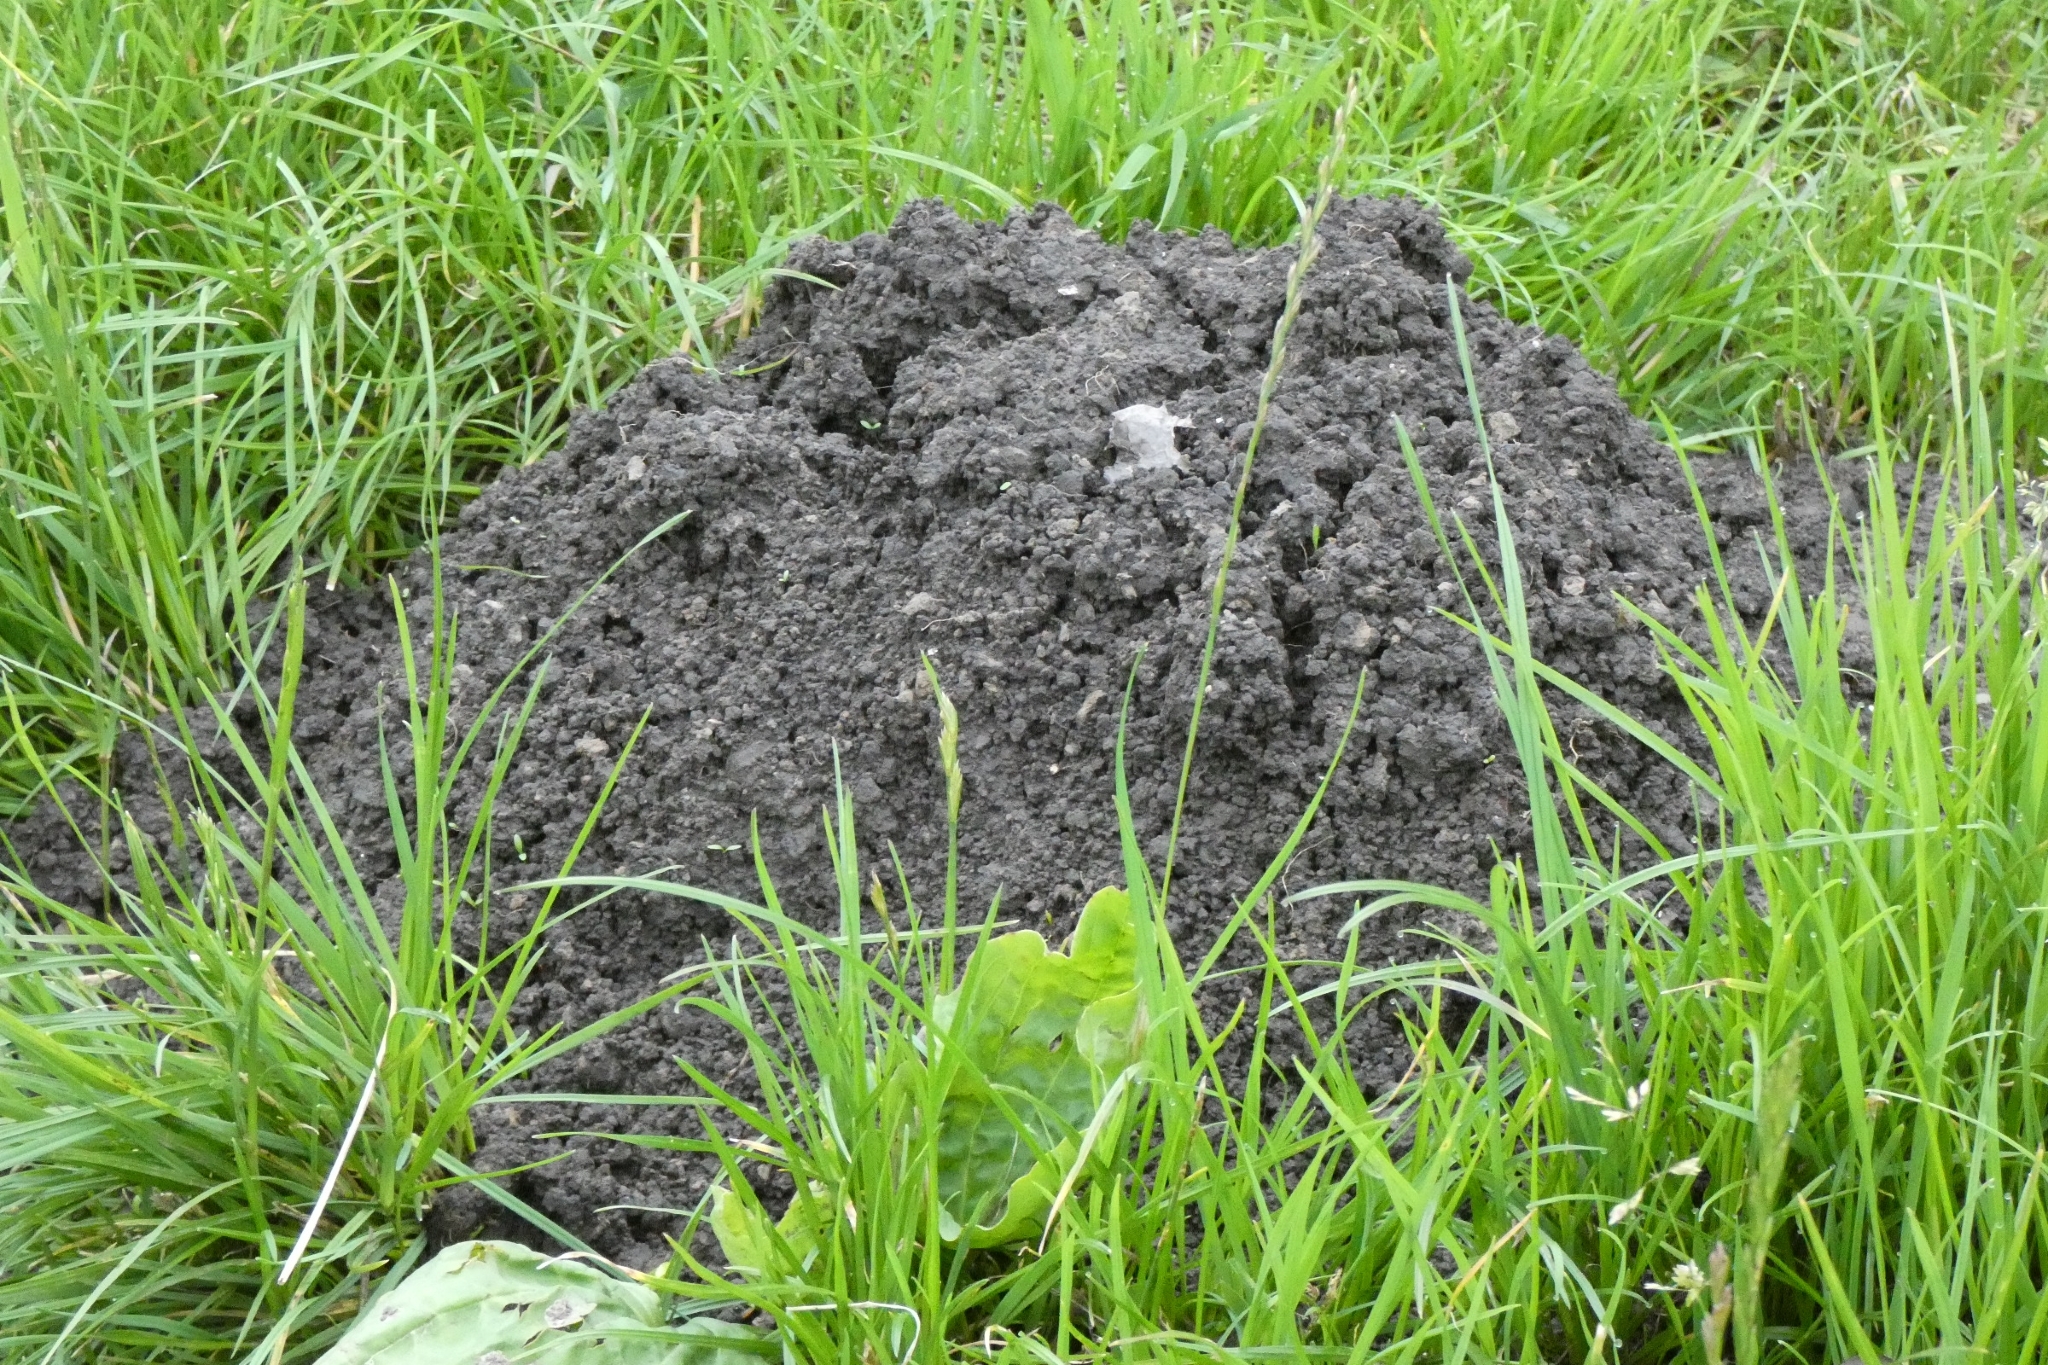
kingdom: Animalia
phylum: Chordata
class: Mammalia
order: Soricomorpha
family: Talpidae
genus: Talpa
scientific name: Talpa europaea
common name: European mole
